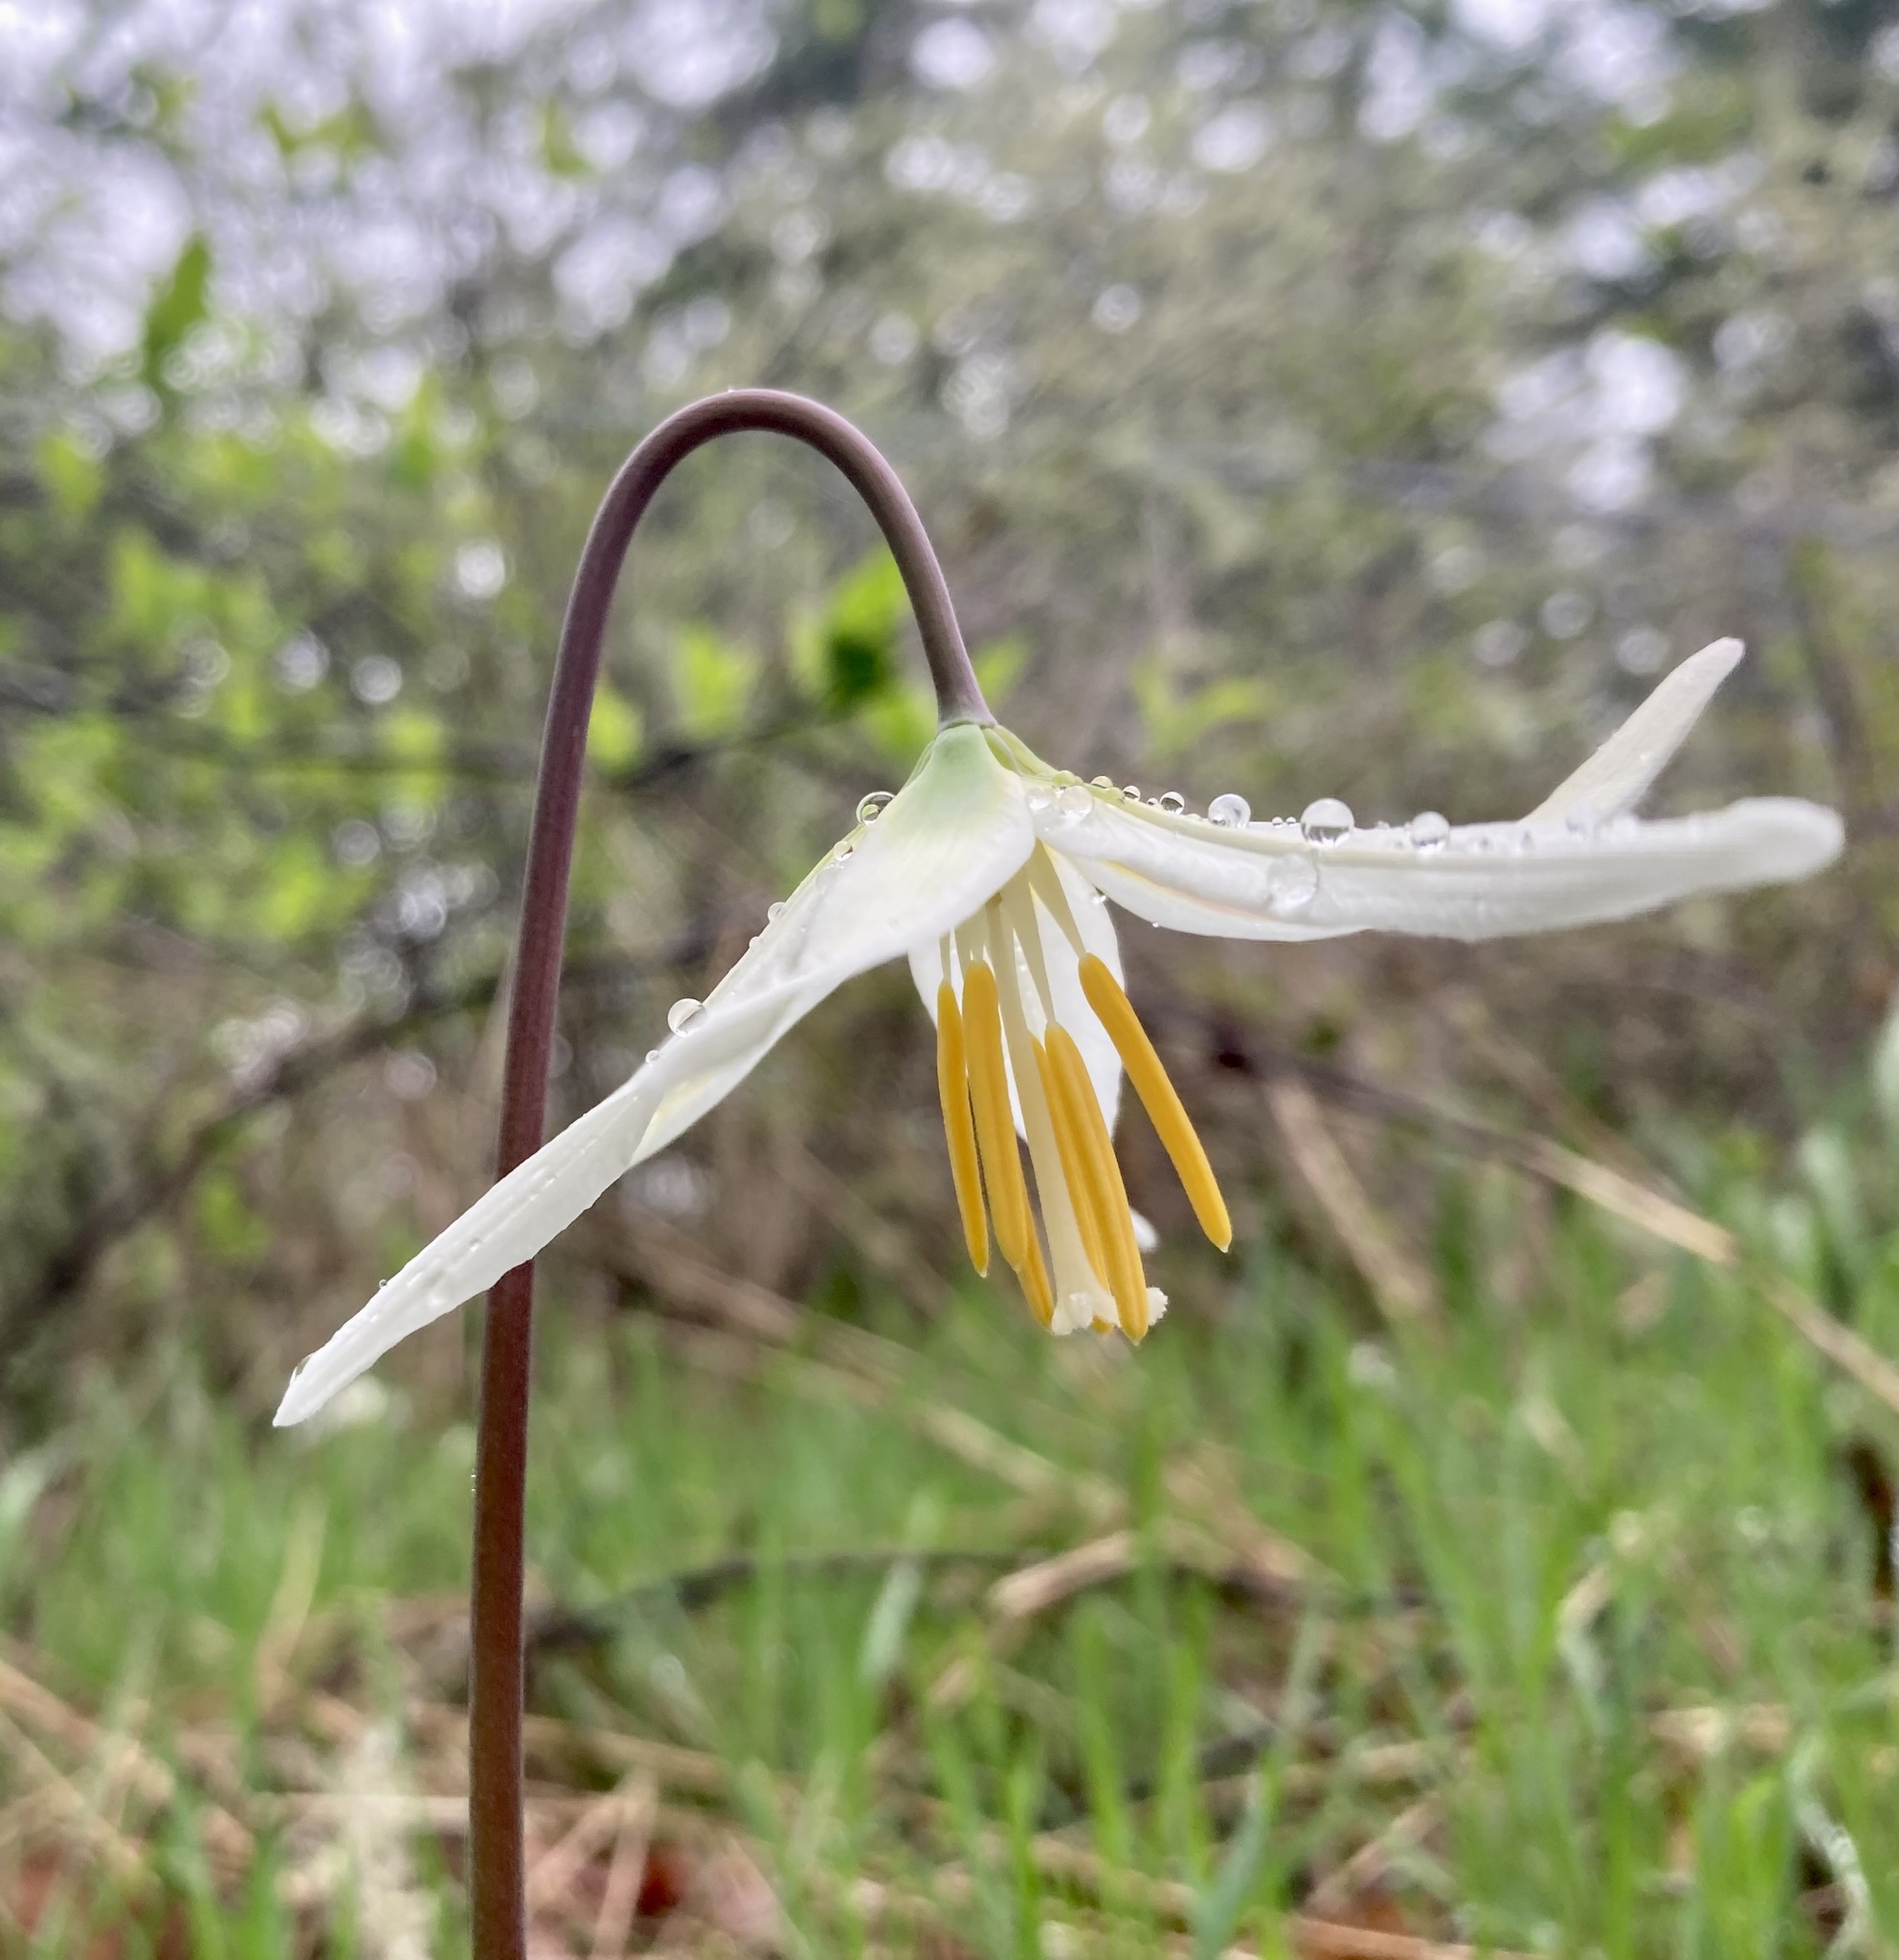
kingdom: Plantae
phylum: Tracheophyta
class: Liliopsida
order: Liliales
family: Liliaceae
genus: Erythronium
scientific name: Erythronium oregonum
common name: Giant adder's-tongue
